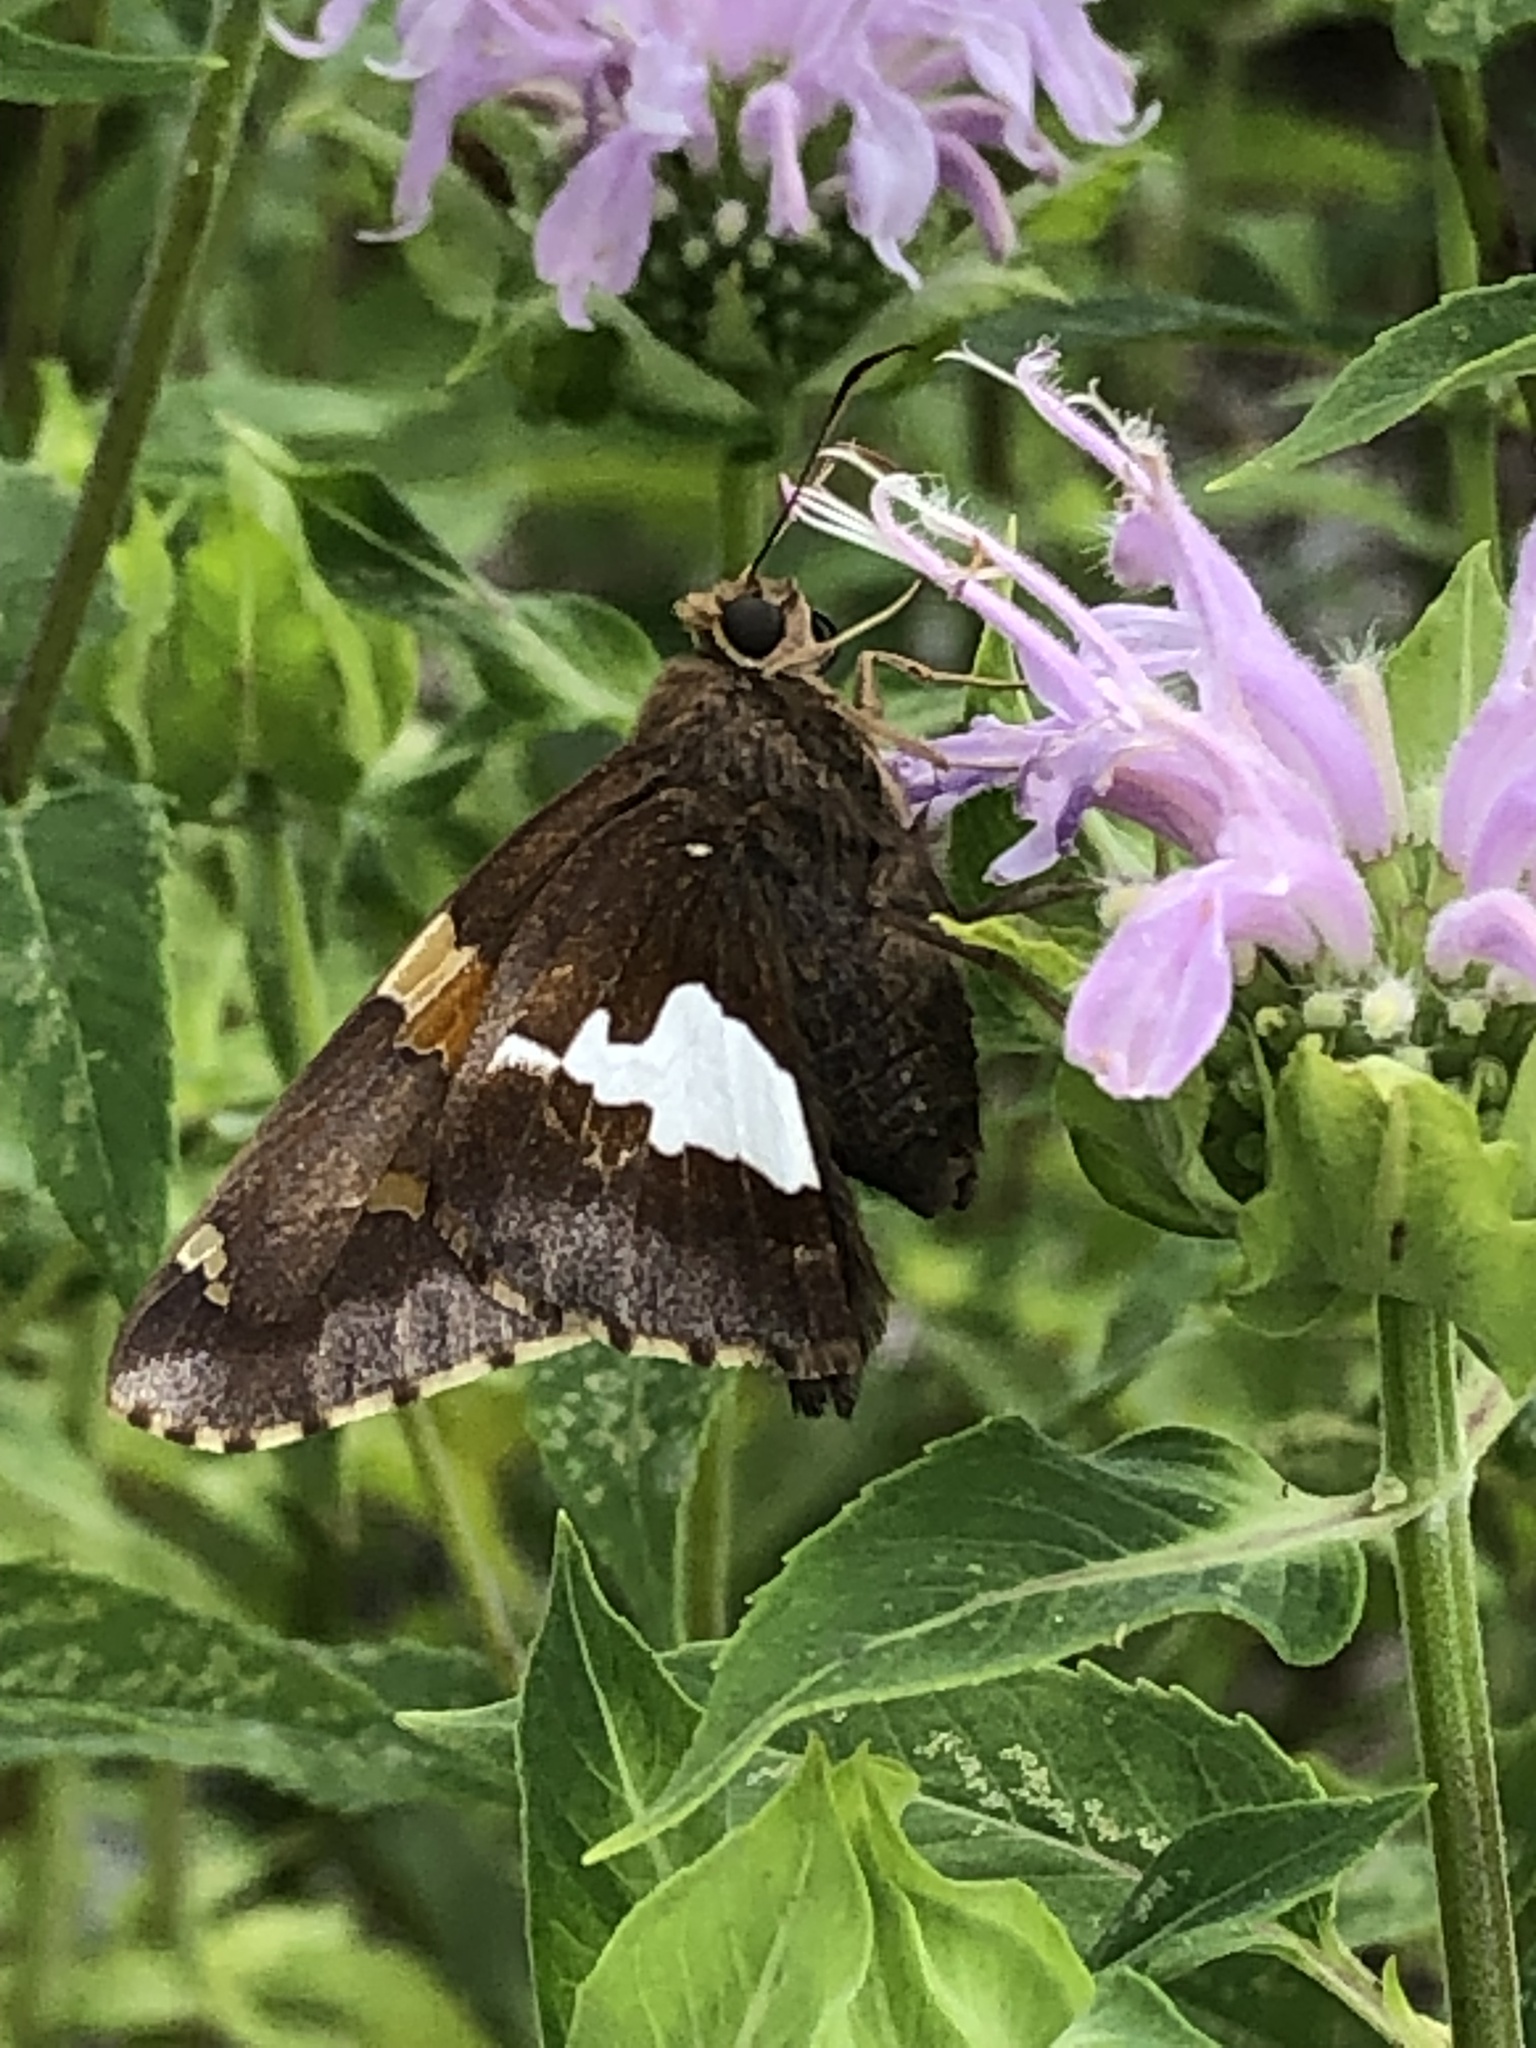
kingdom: Animalia
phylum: Arthropoda
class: Insecta
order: Lepidoptera
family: Hesperiidae
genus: Epargyreus
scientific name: Epargyreus clarus
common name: Silver-spotted skipper
